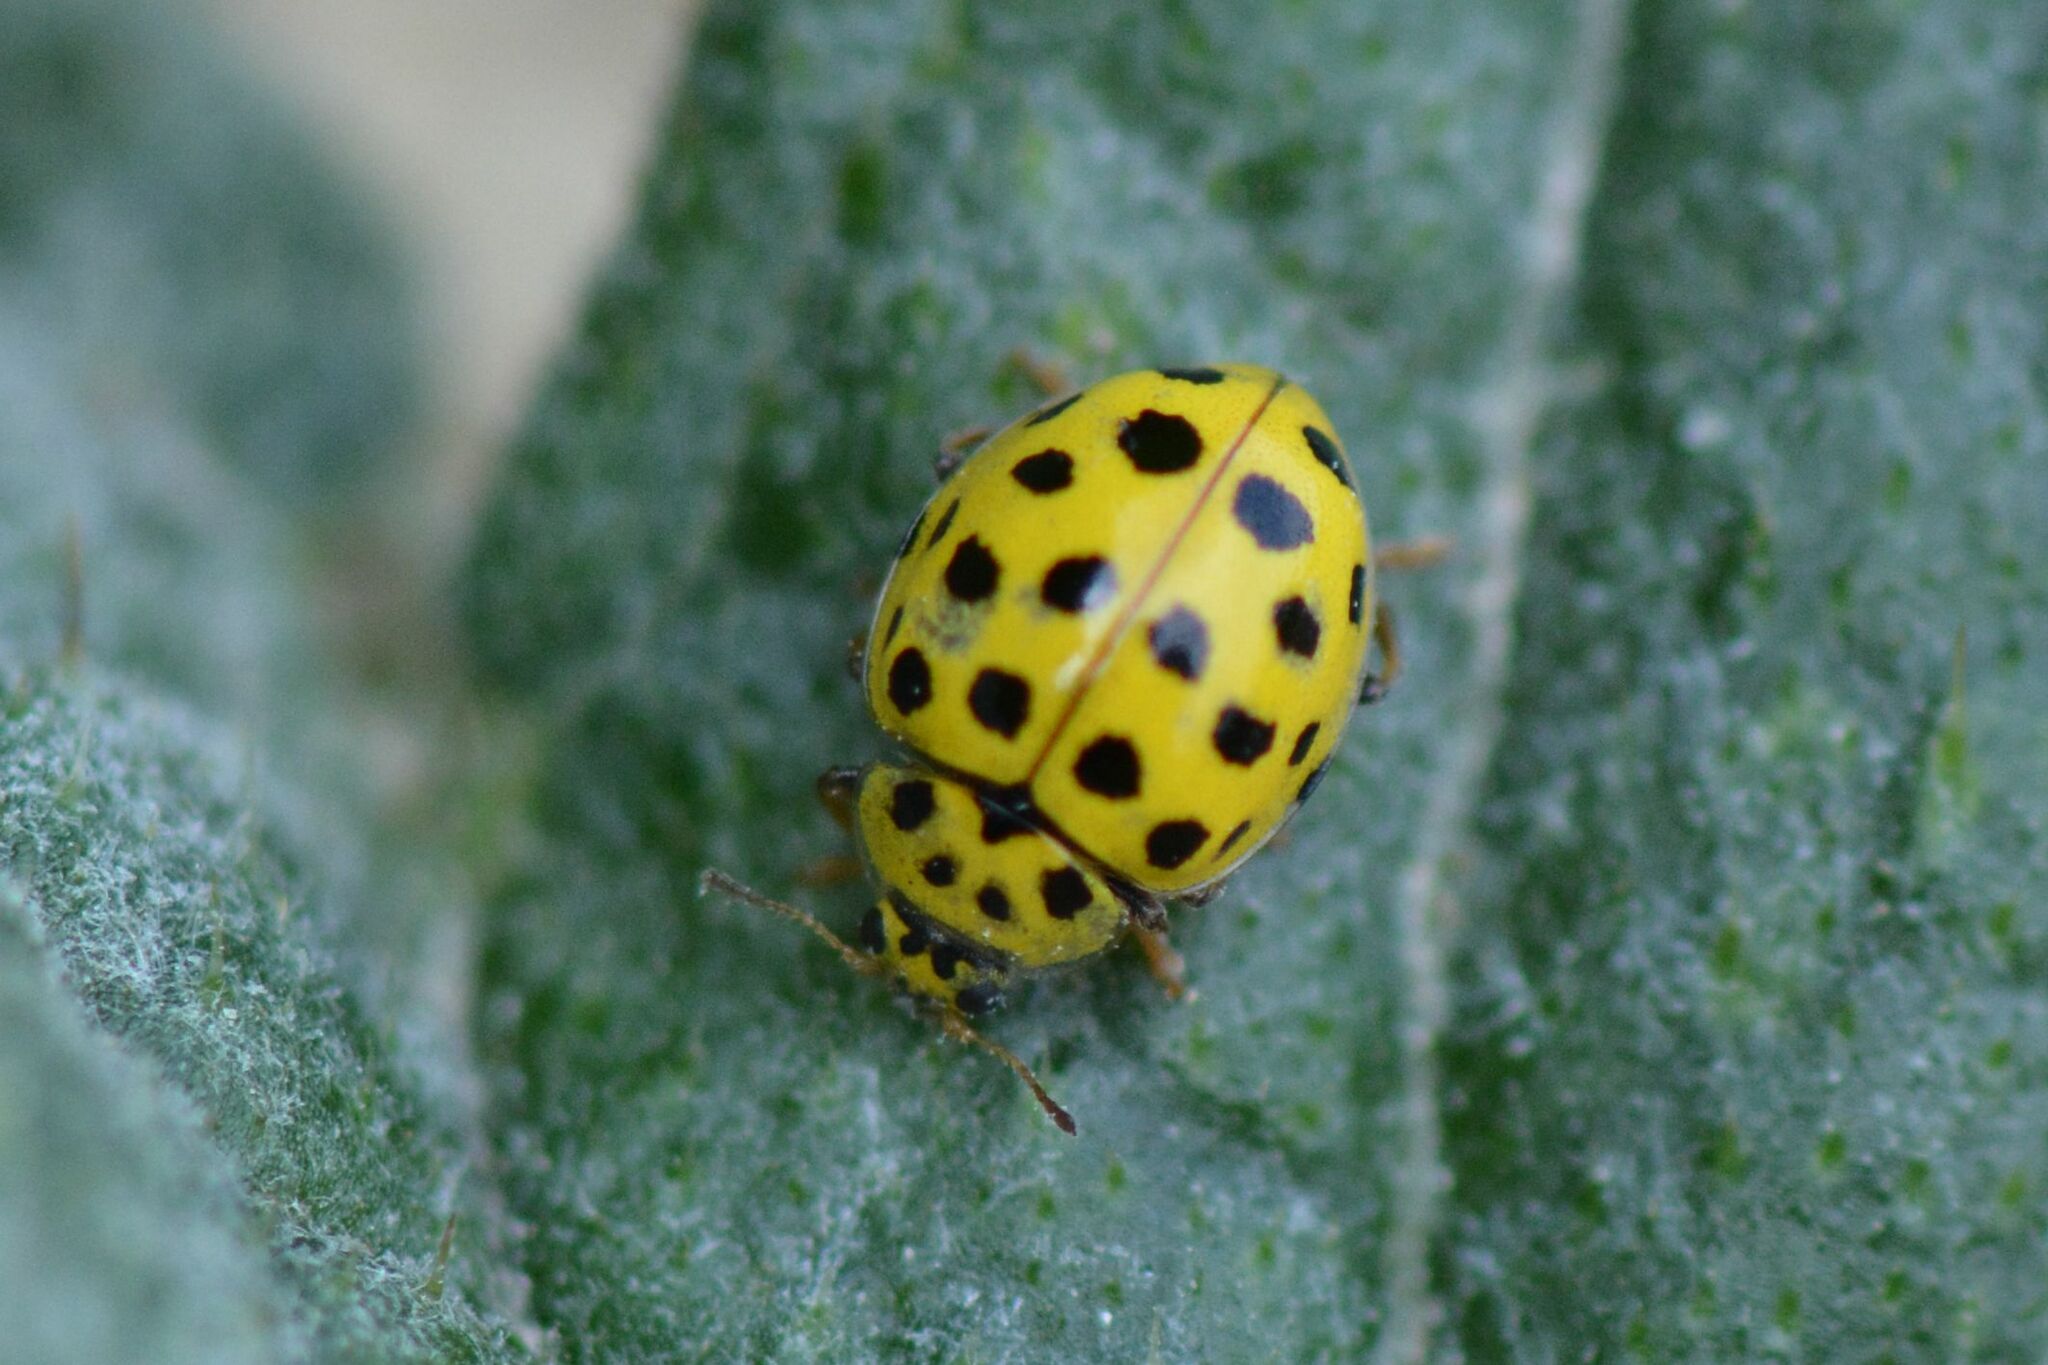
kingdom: Animalia
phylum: Arthropoda
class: Insecta
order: Coleoptera
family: Coccinellidae
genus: Psyllobora
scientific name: Psyllobora vigintiduopunctata
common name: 22-spot ladybird
